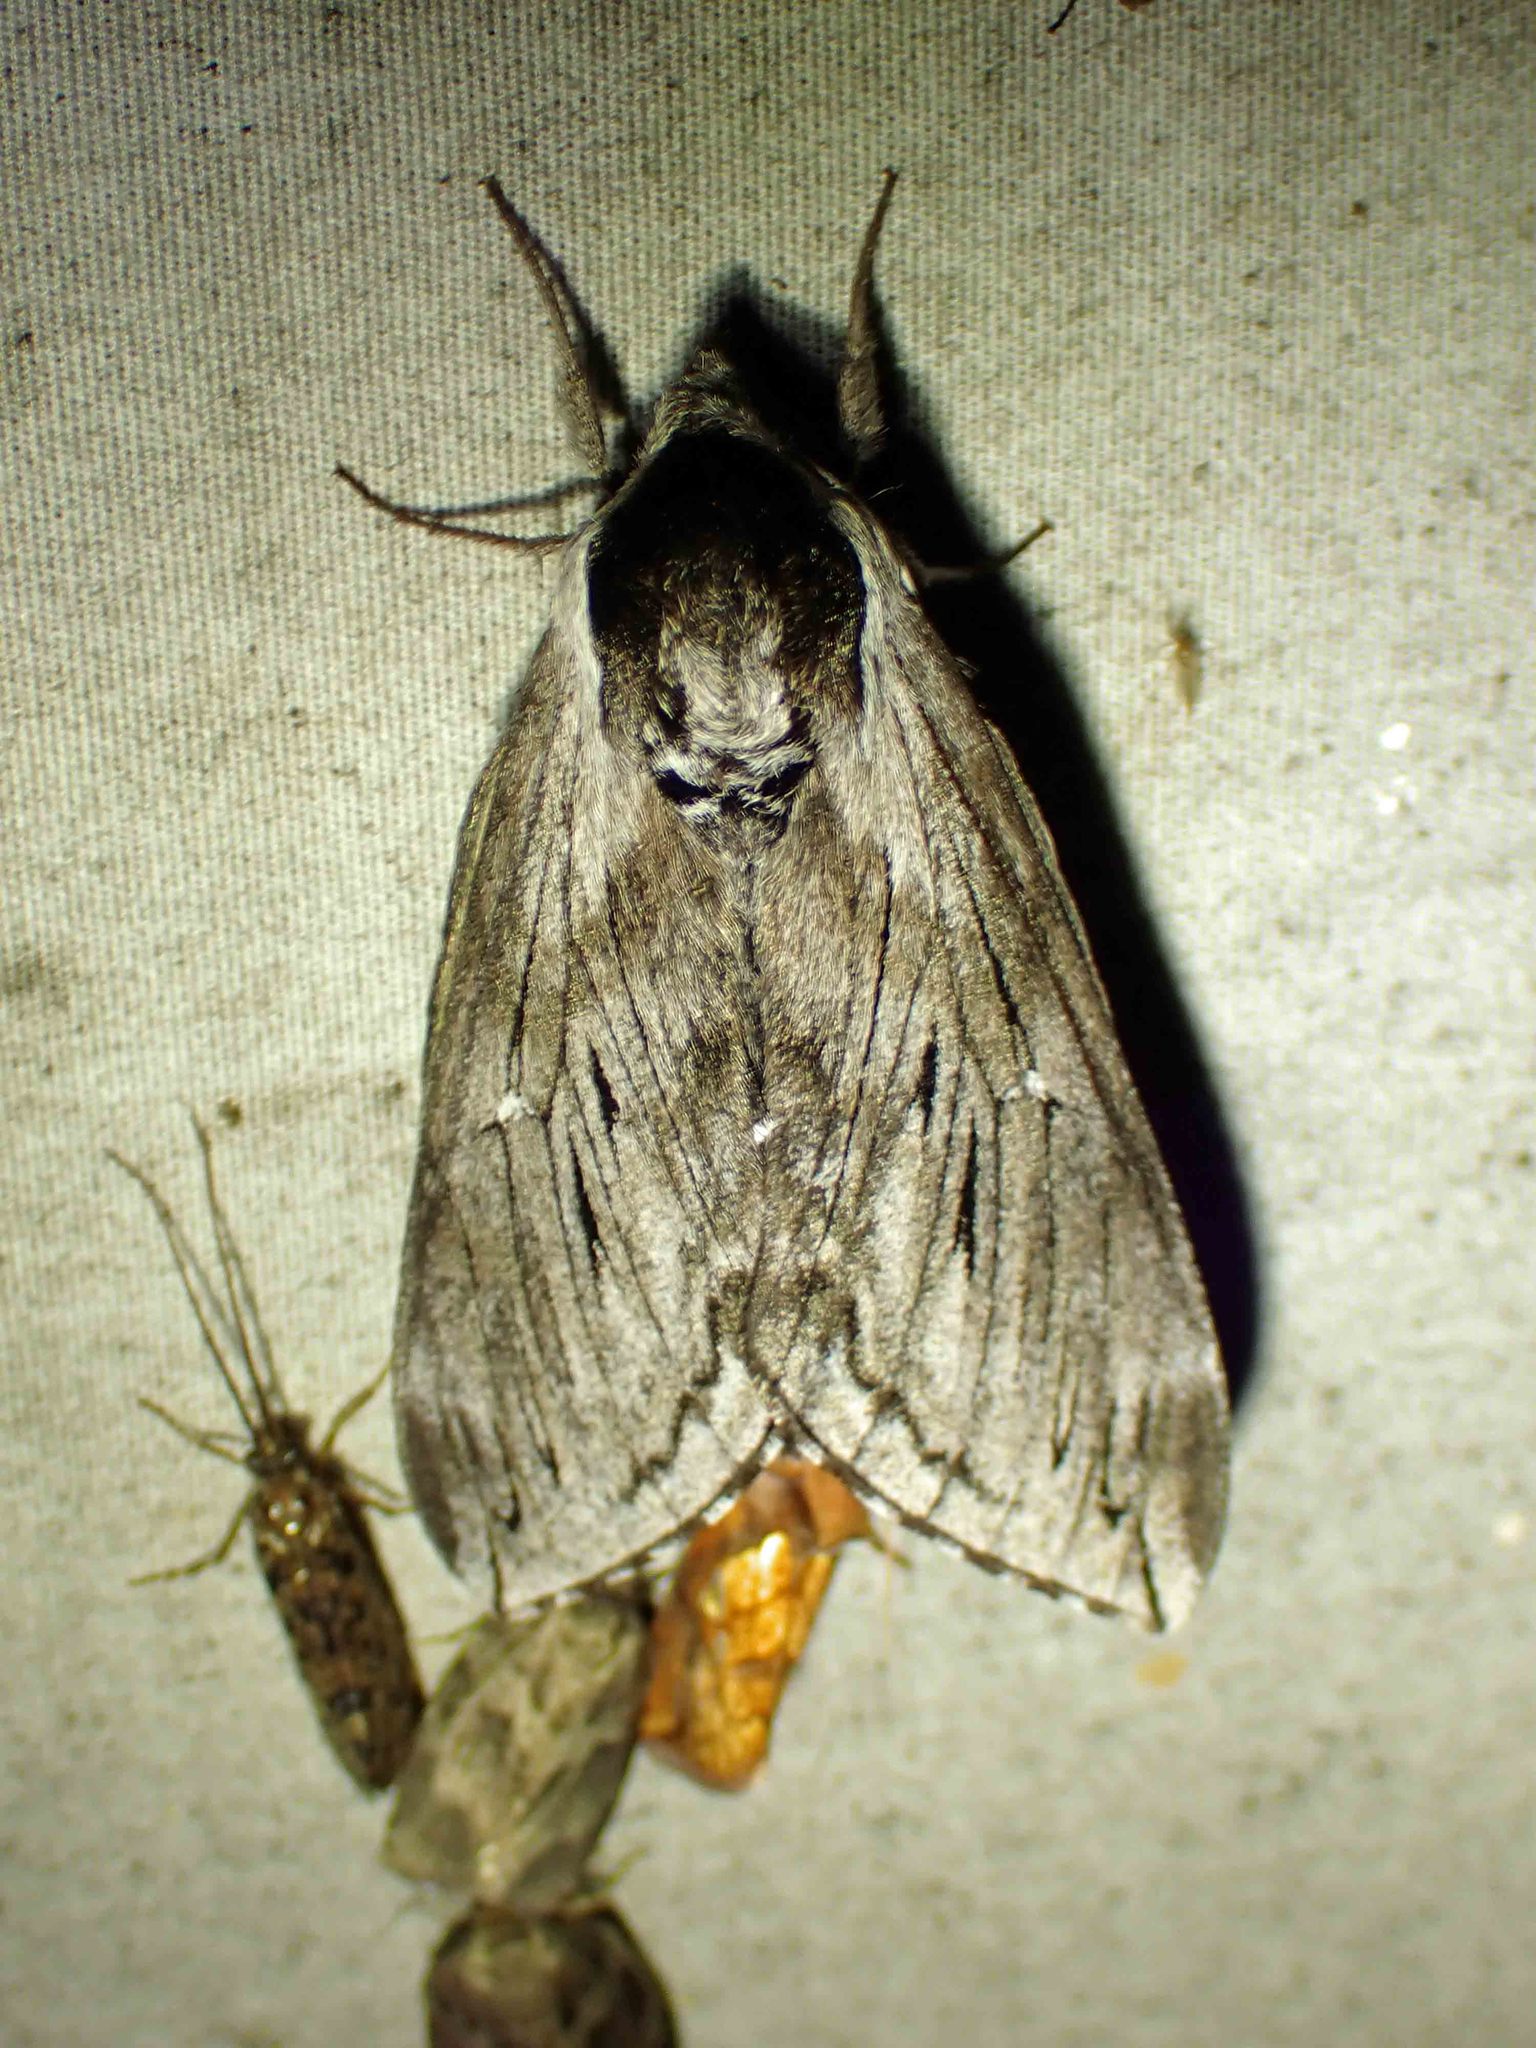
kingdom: Animalia
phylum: Arthropoda
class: Insecta
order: Lepidoptera
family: Sphingidae
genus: Sphinx
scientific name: Sphinx poecila
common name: Northern apple sphinx
